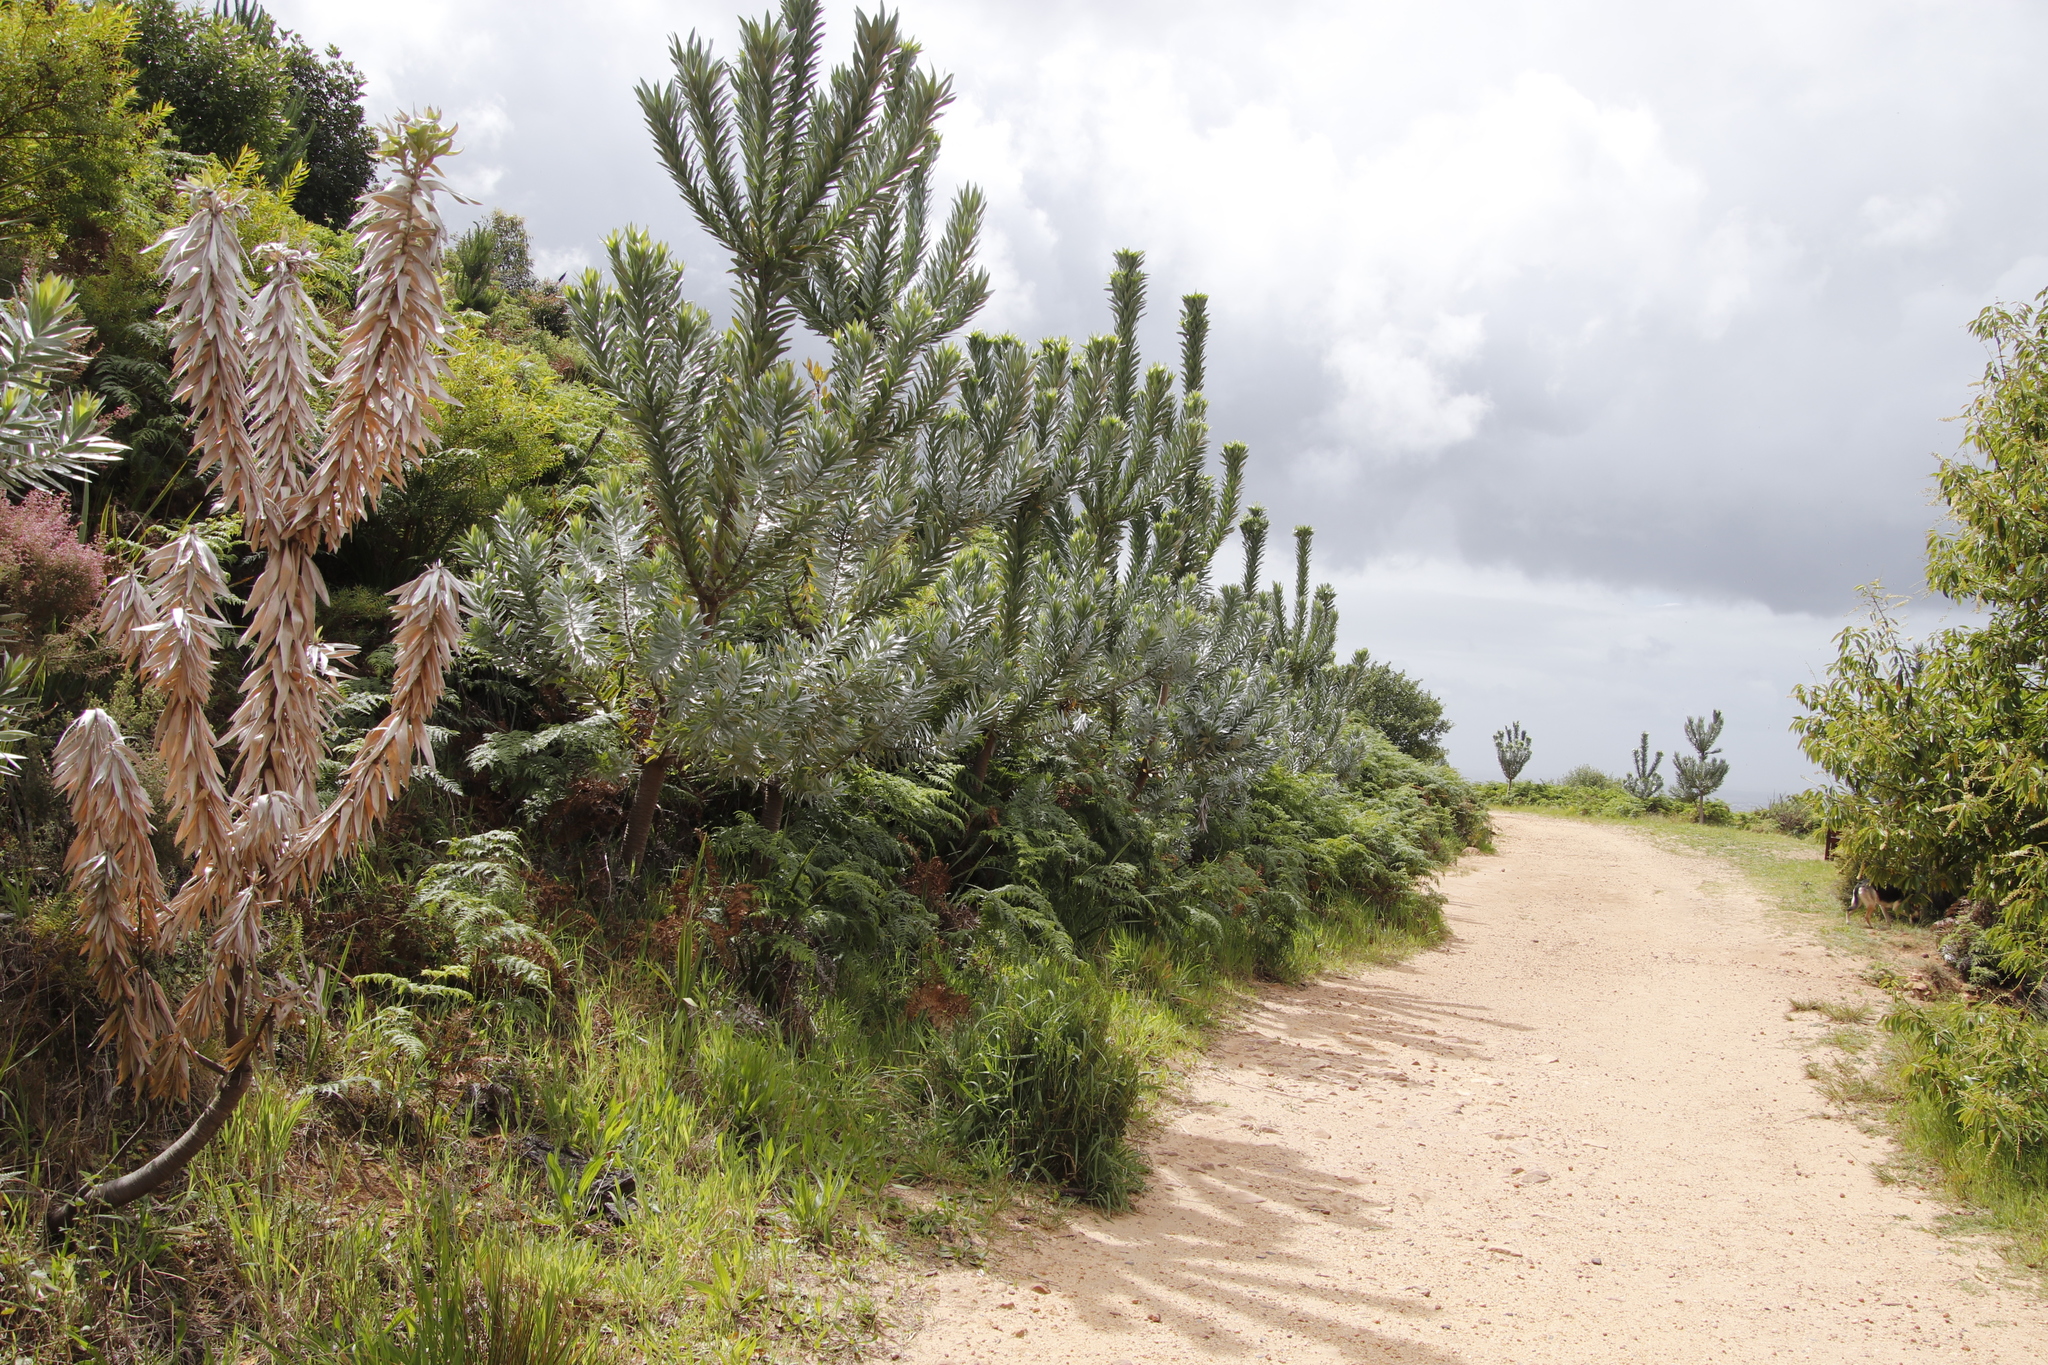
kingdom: Plantae
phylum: Tracheophyta
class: Magnoliopsida
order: Proteales
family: Proteaceae
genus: Leucadendron
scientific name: Leucadendron argenteum
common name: Cape silver tree
